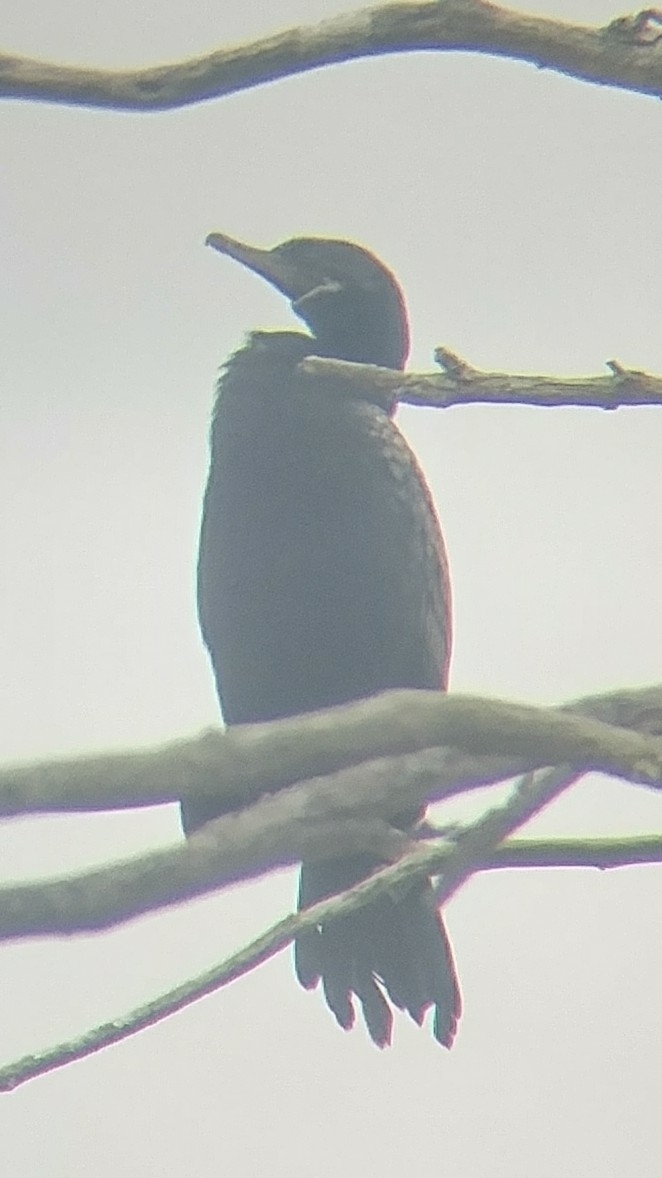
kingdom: Animalia
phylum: Chordata
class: Aves
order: Suliformes
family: Phalacrocoracidae
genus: Phalacrocorax
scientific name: Phalacrocorax brasilianus
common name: Neotropic cormorant
